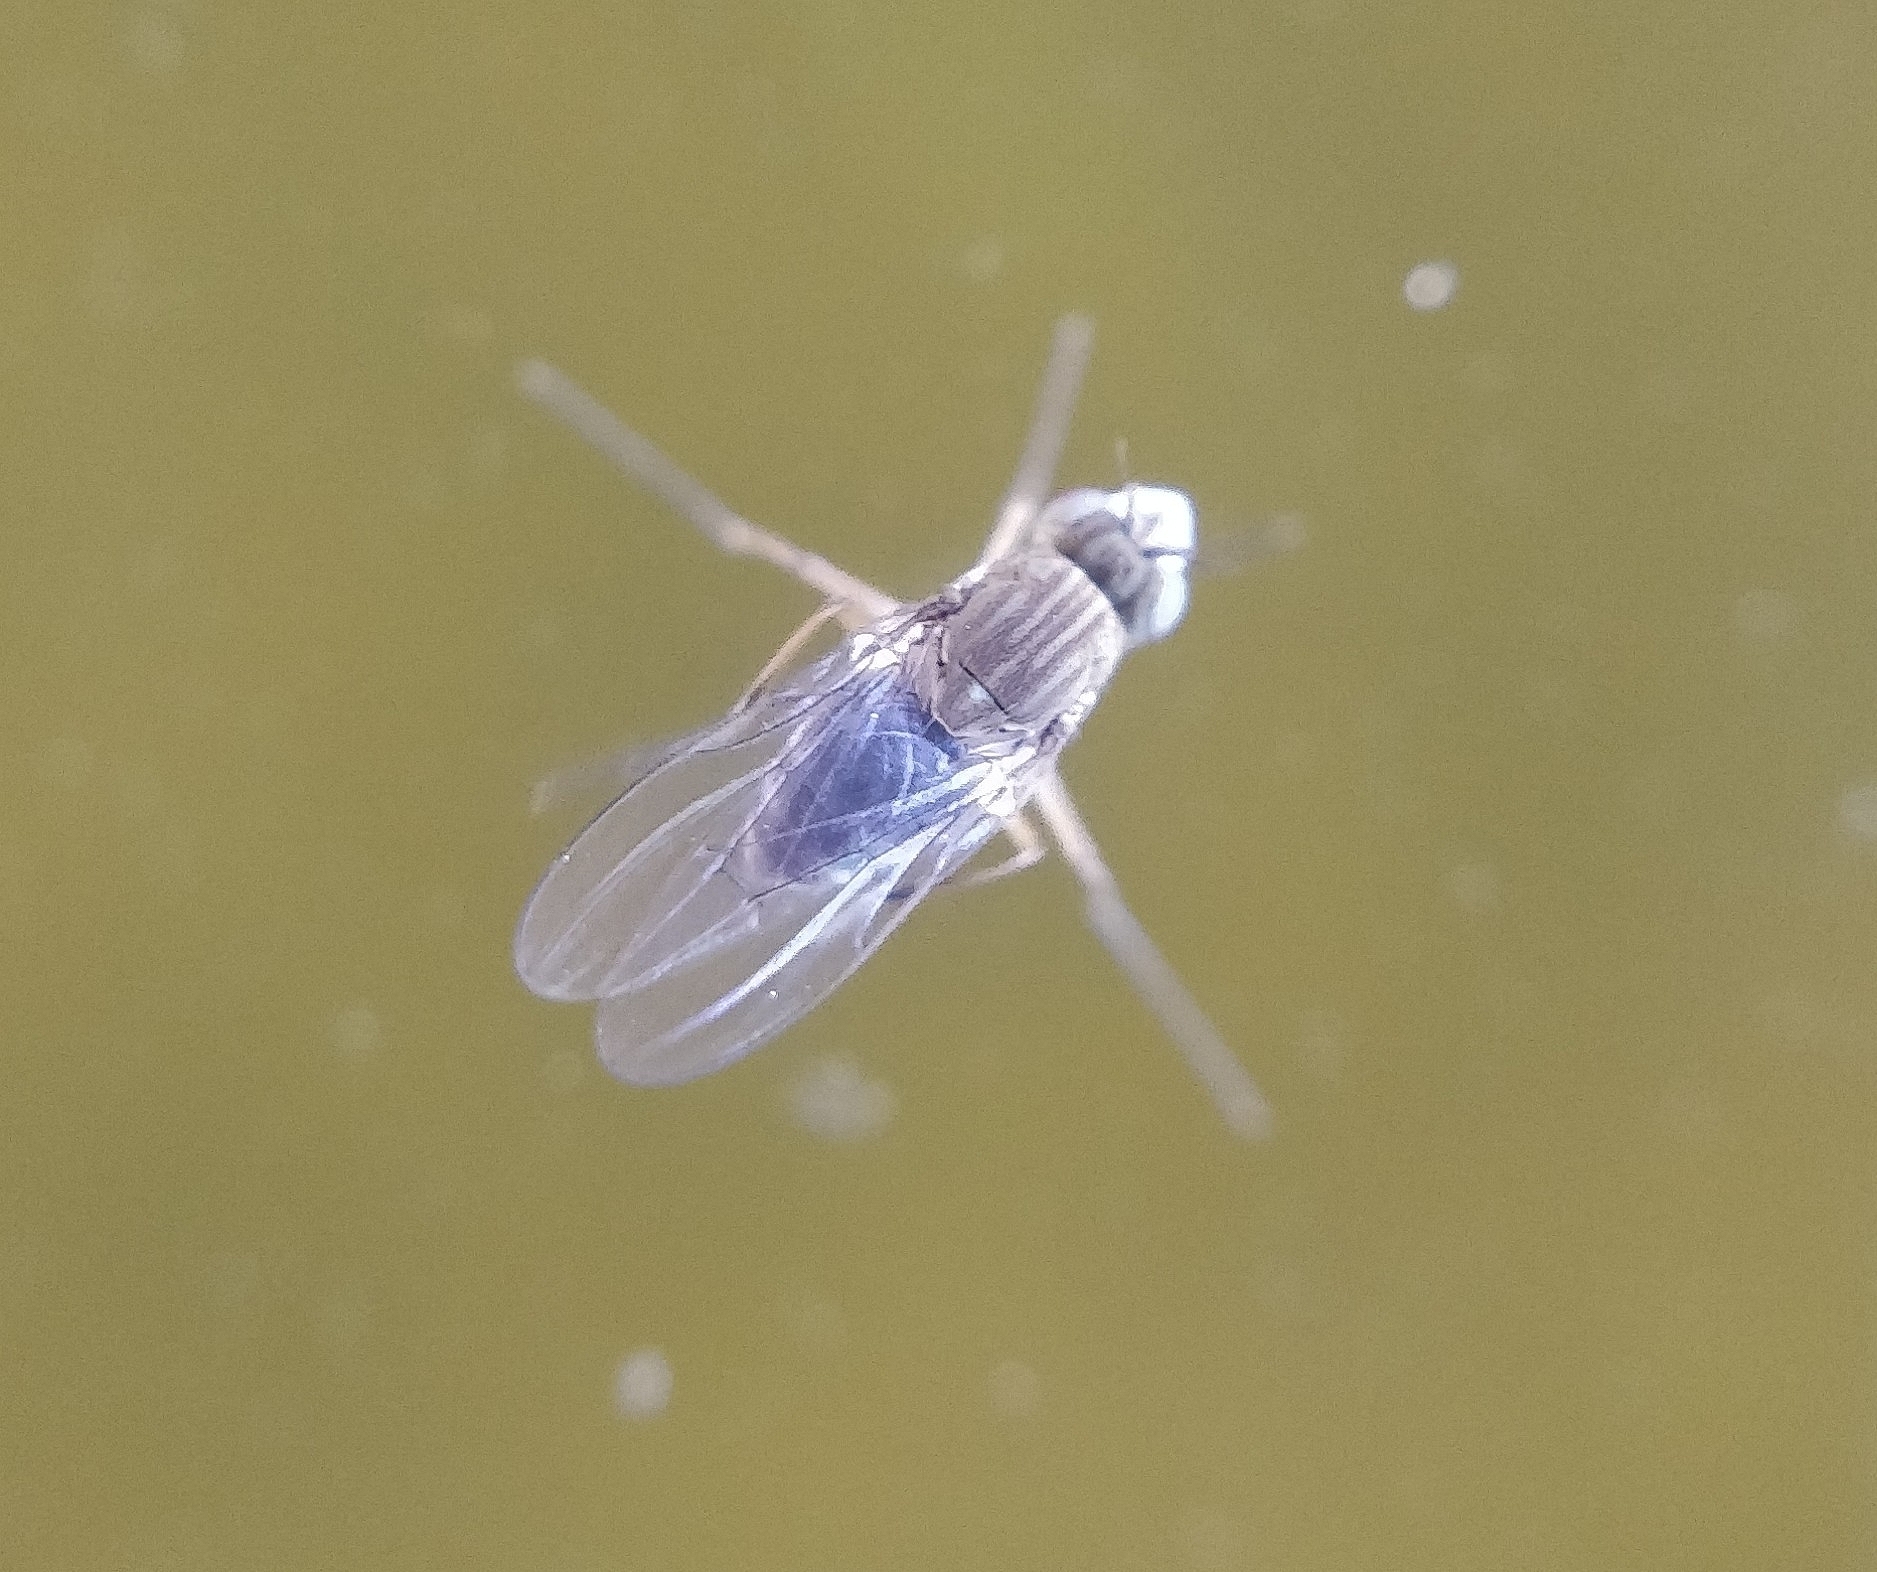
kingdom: Animalia
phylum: Arthropoda
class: Insecta
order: Diptera
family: Ephydridae
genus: Brachydeutera
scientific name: Brachydeutera ibari
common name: Shore fly
